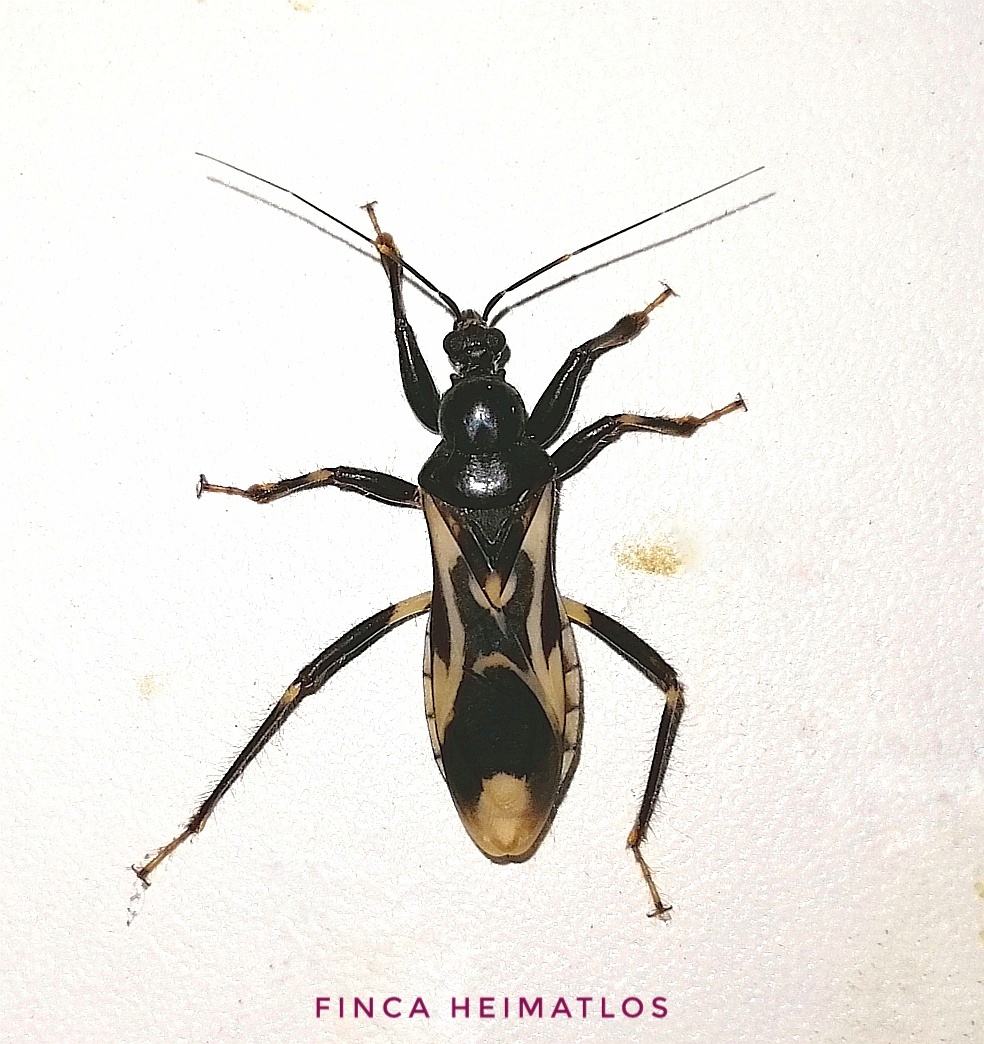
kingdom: Animalia
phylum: Arthropoda
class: Insecta
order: Hemiptera
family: Reduviidae
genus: Rasahus
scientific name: Rasahus albomaculatus
